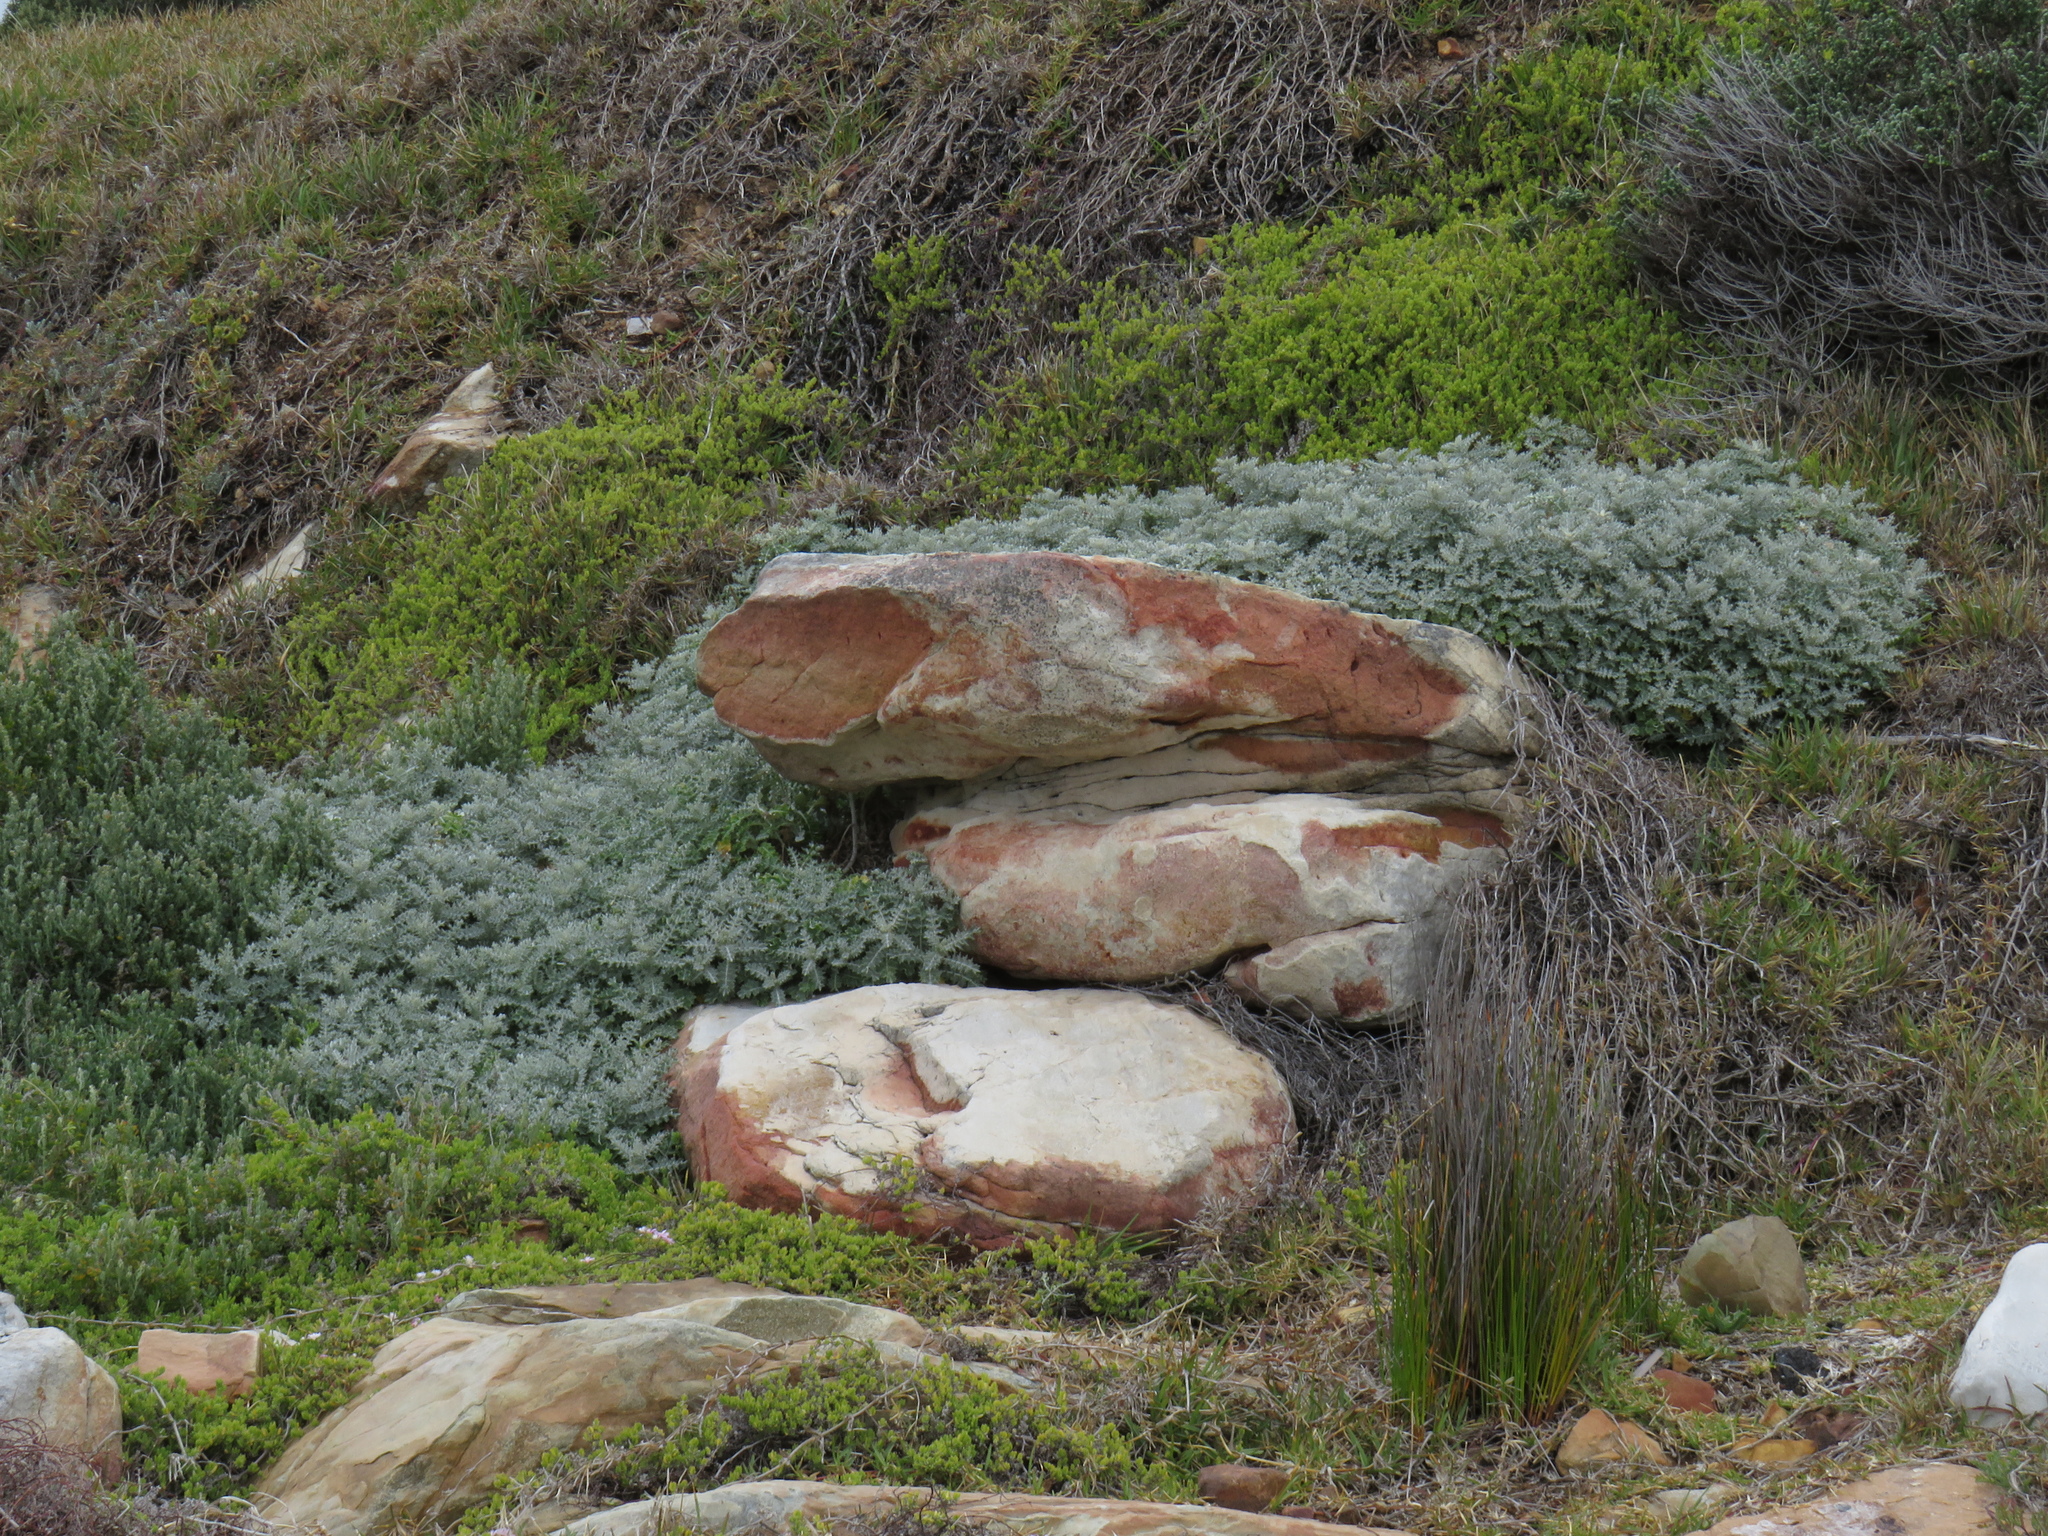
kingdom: Plantae
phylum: Tracheophyta
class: Magnoliopsida
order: Asterales
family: Asteraceae
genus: Berkheya
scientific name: Berkheya rigida
